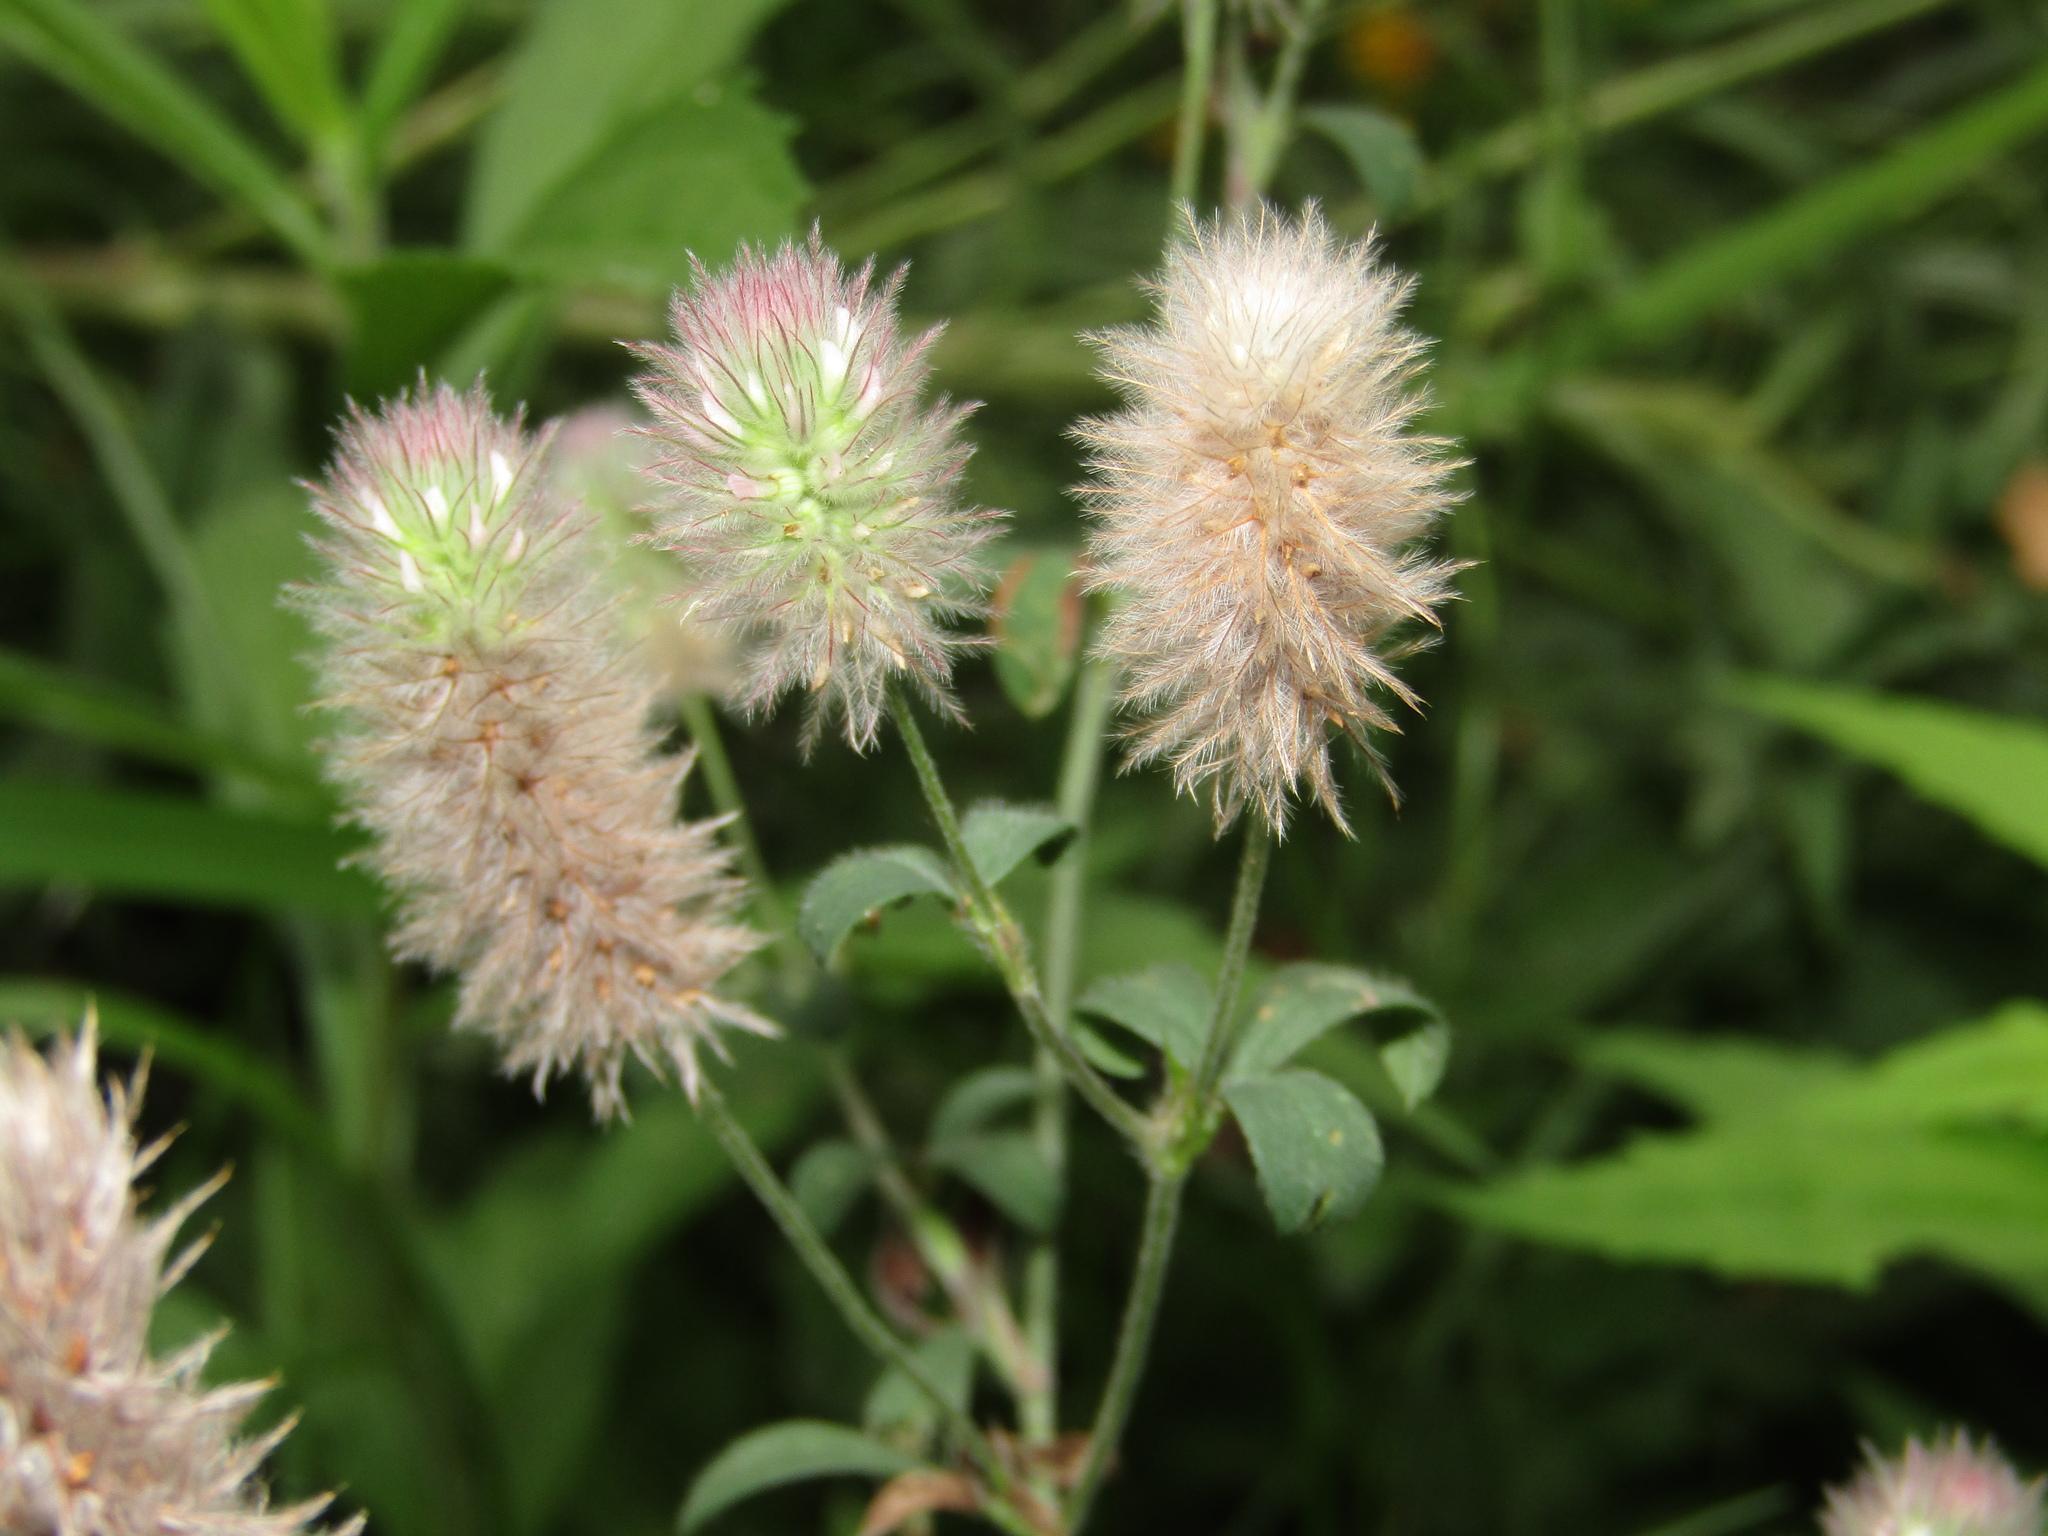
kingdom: Plantae
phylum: Tracheophyta
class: Magnoliopsida
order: Fabales
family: Fabaceae
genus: Trifolium
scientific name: Trifolium arvense
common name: Hare's-foot clover
